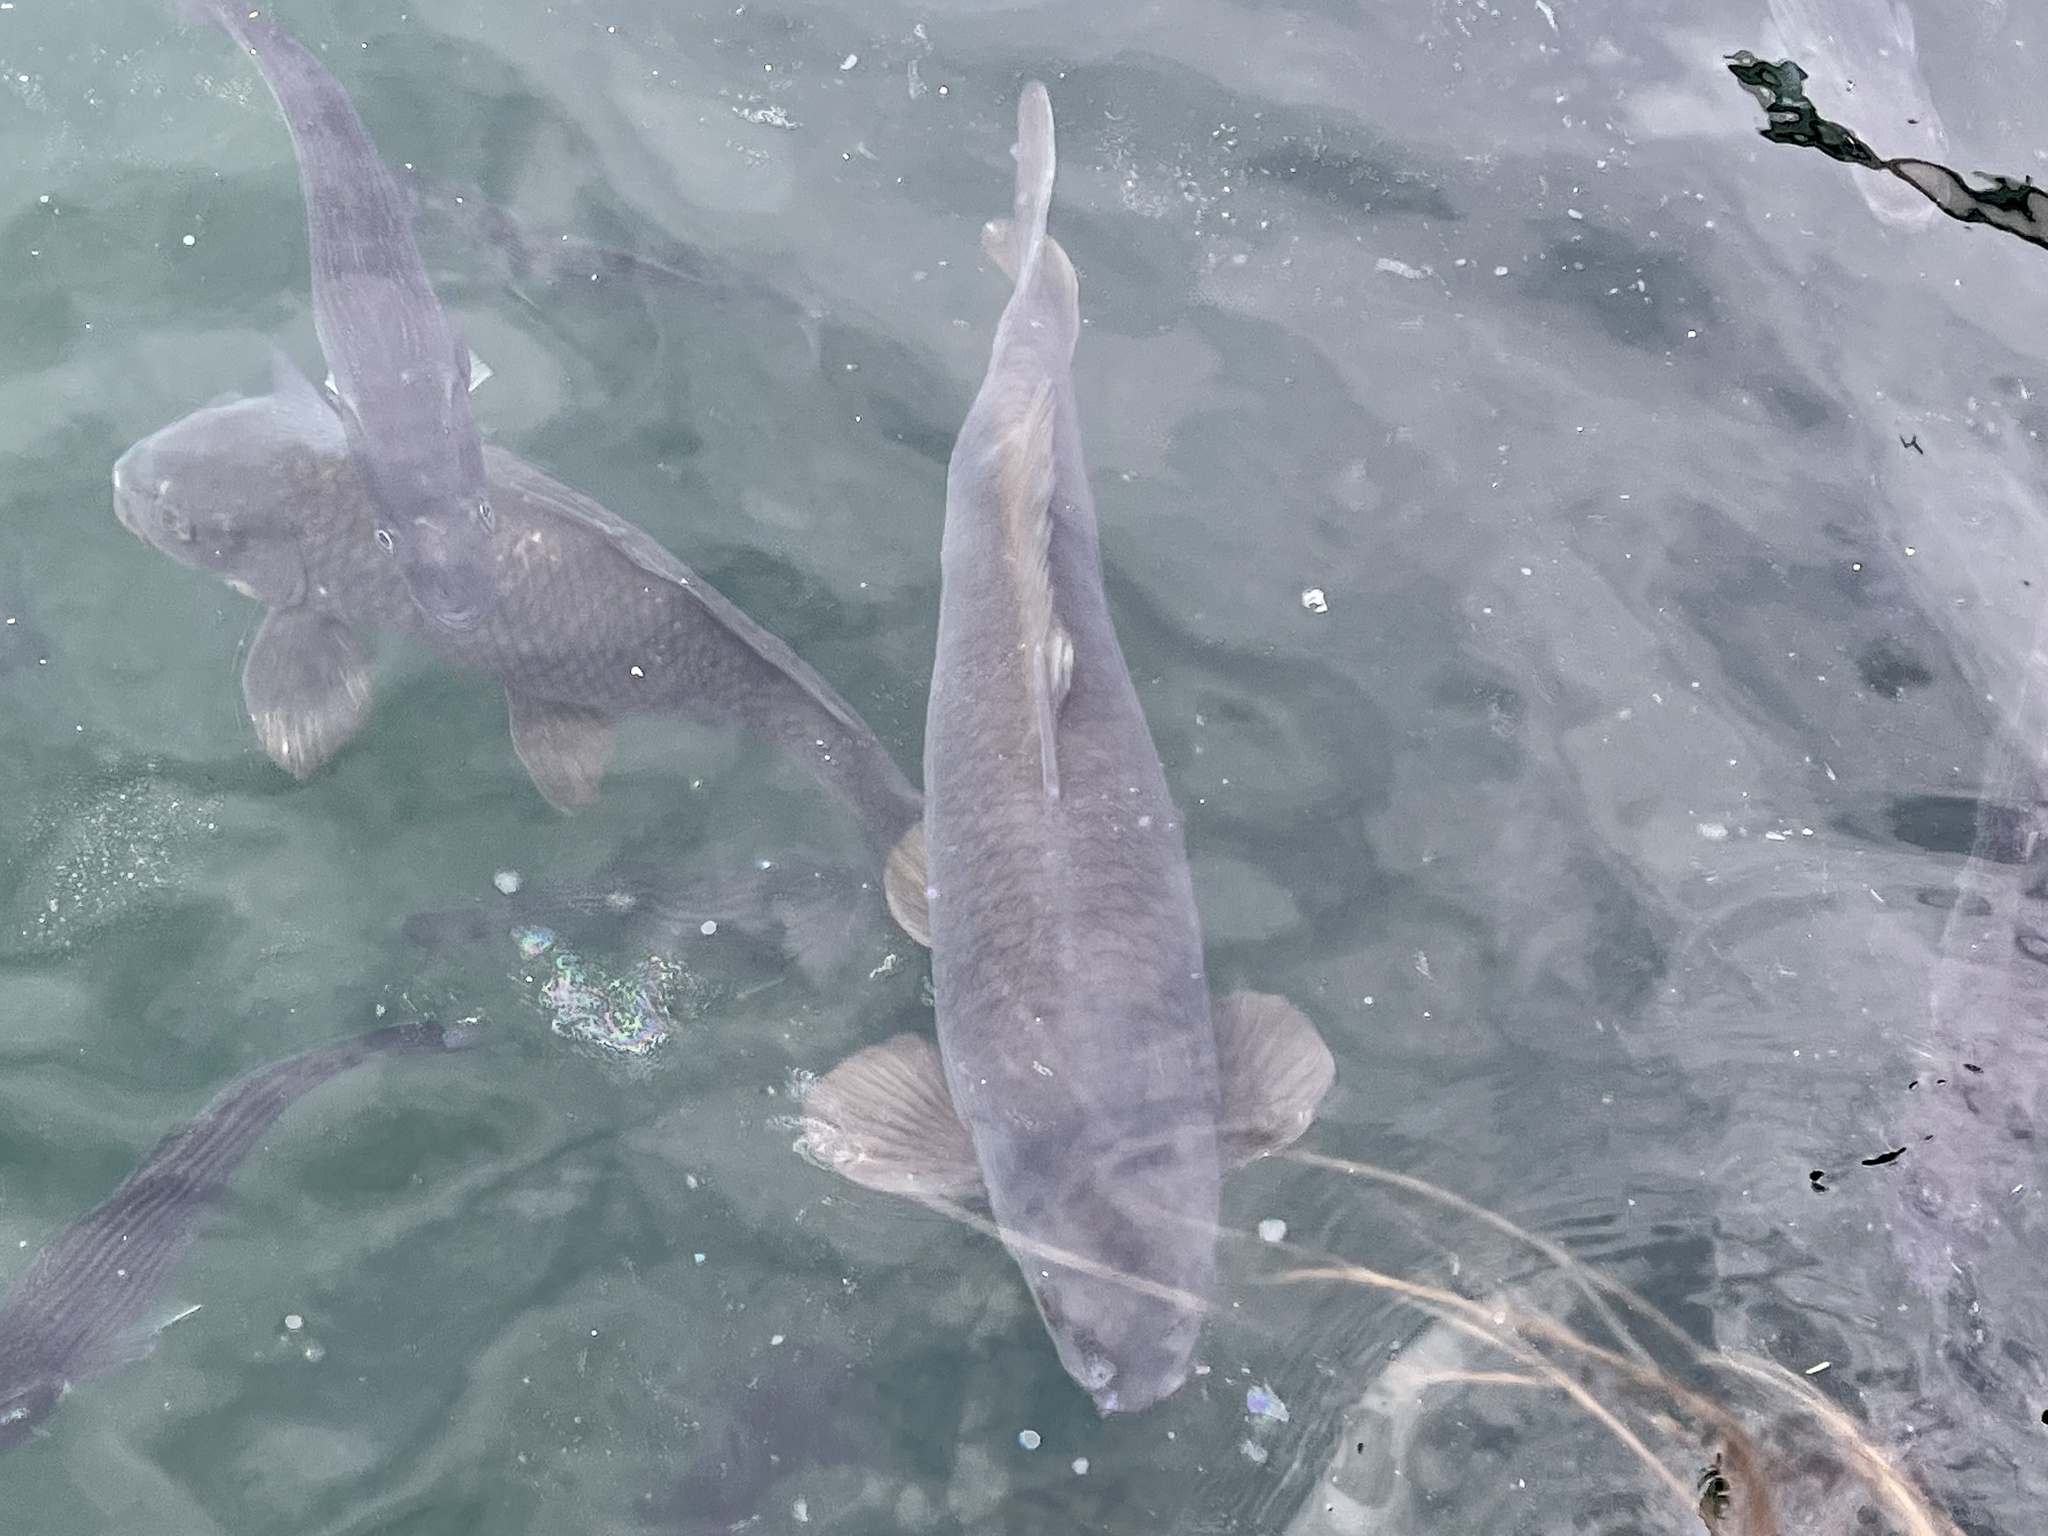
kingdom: Animalia
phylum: Chordata
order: Cypriniformes
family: Cyprinidae
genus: Cyprinus
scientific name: Cyprinus carpio
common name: Common carp
